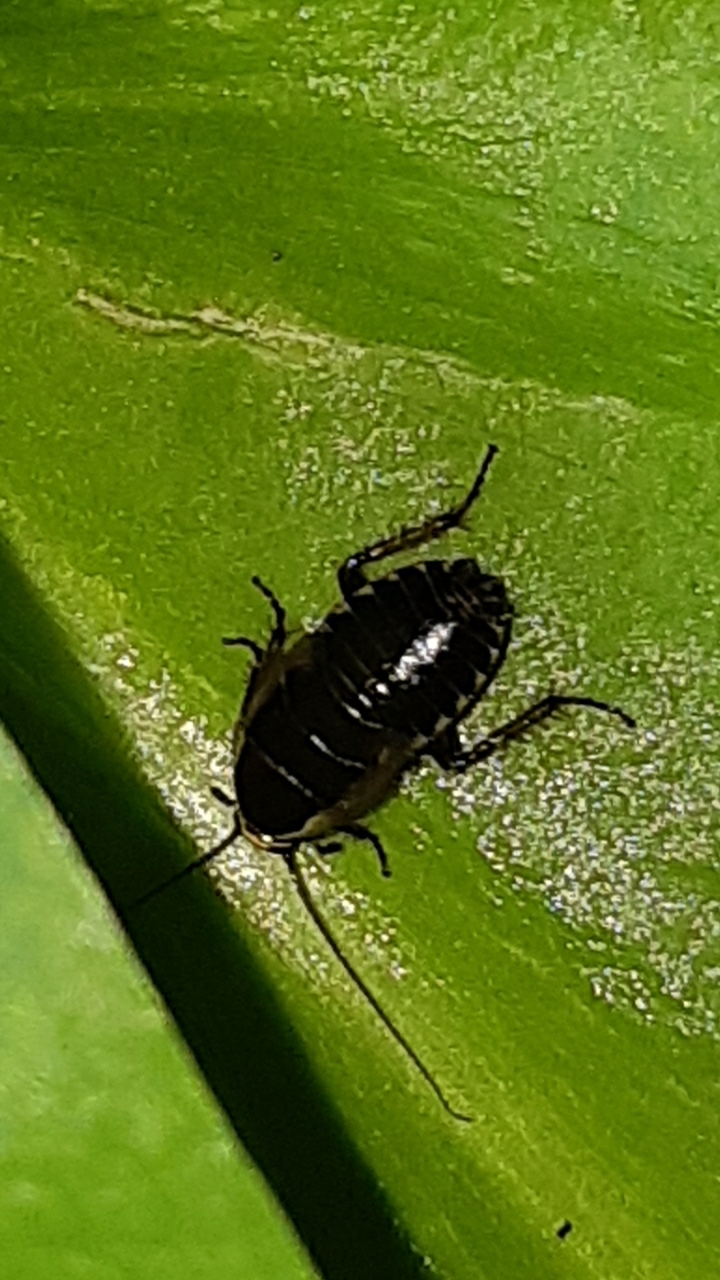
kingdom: Animalia
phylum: Arthropoda
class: Insecta
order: Blattodea
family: Ectobiidae
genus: Ectobius
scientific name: Ectobius sylvestris
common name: Forest cockroach
